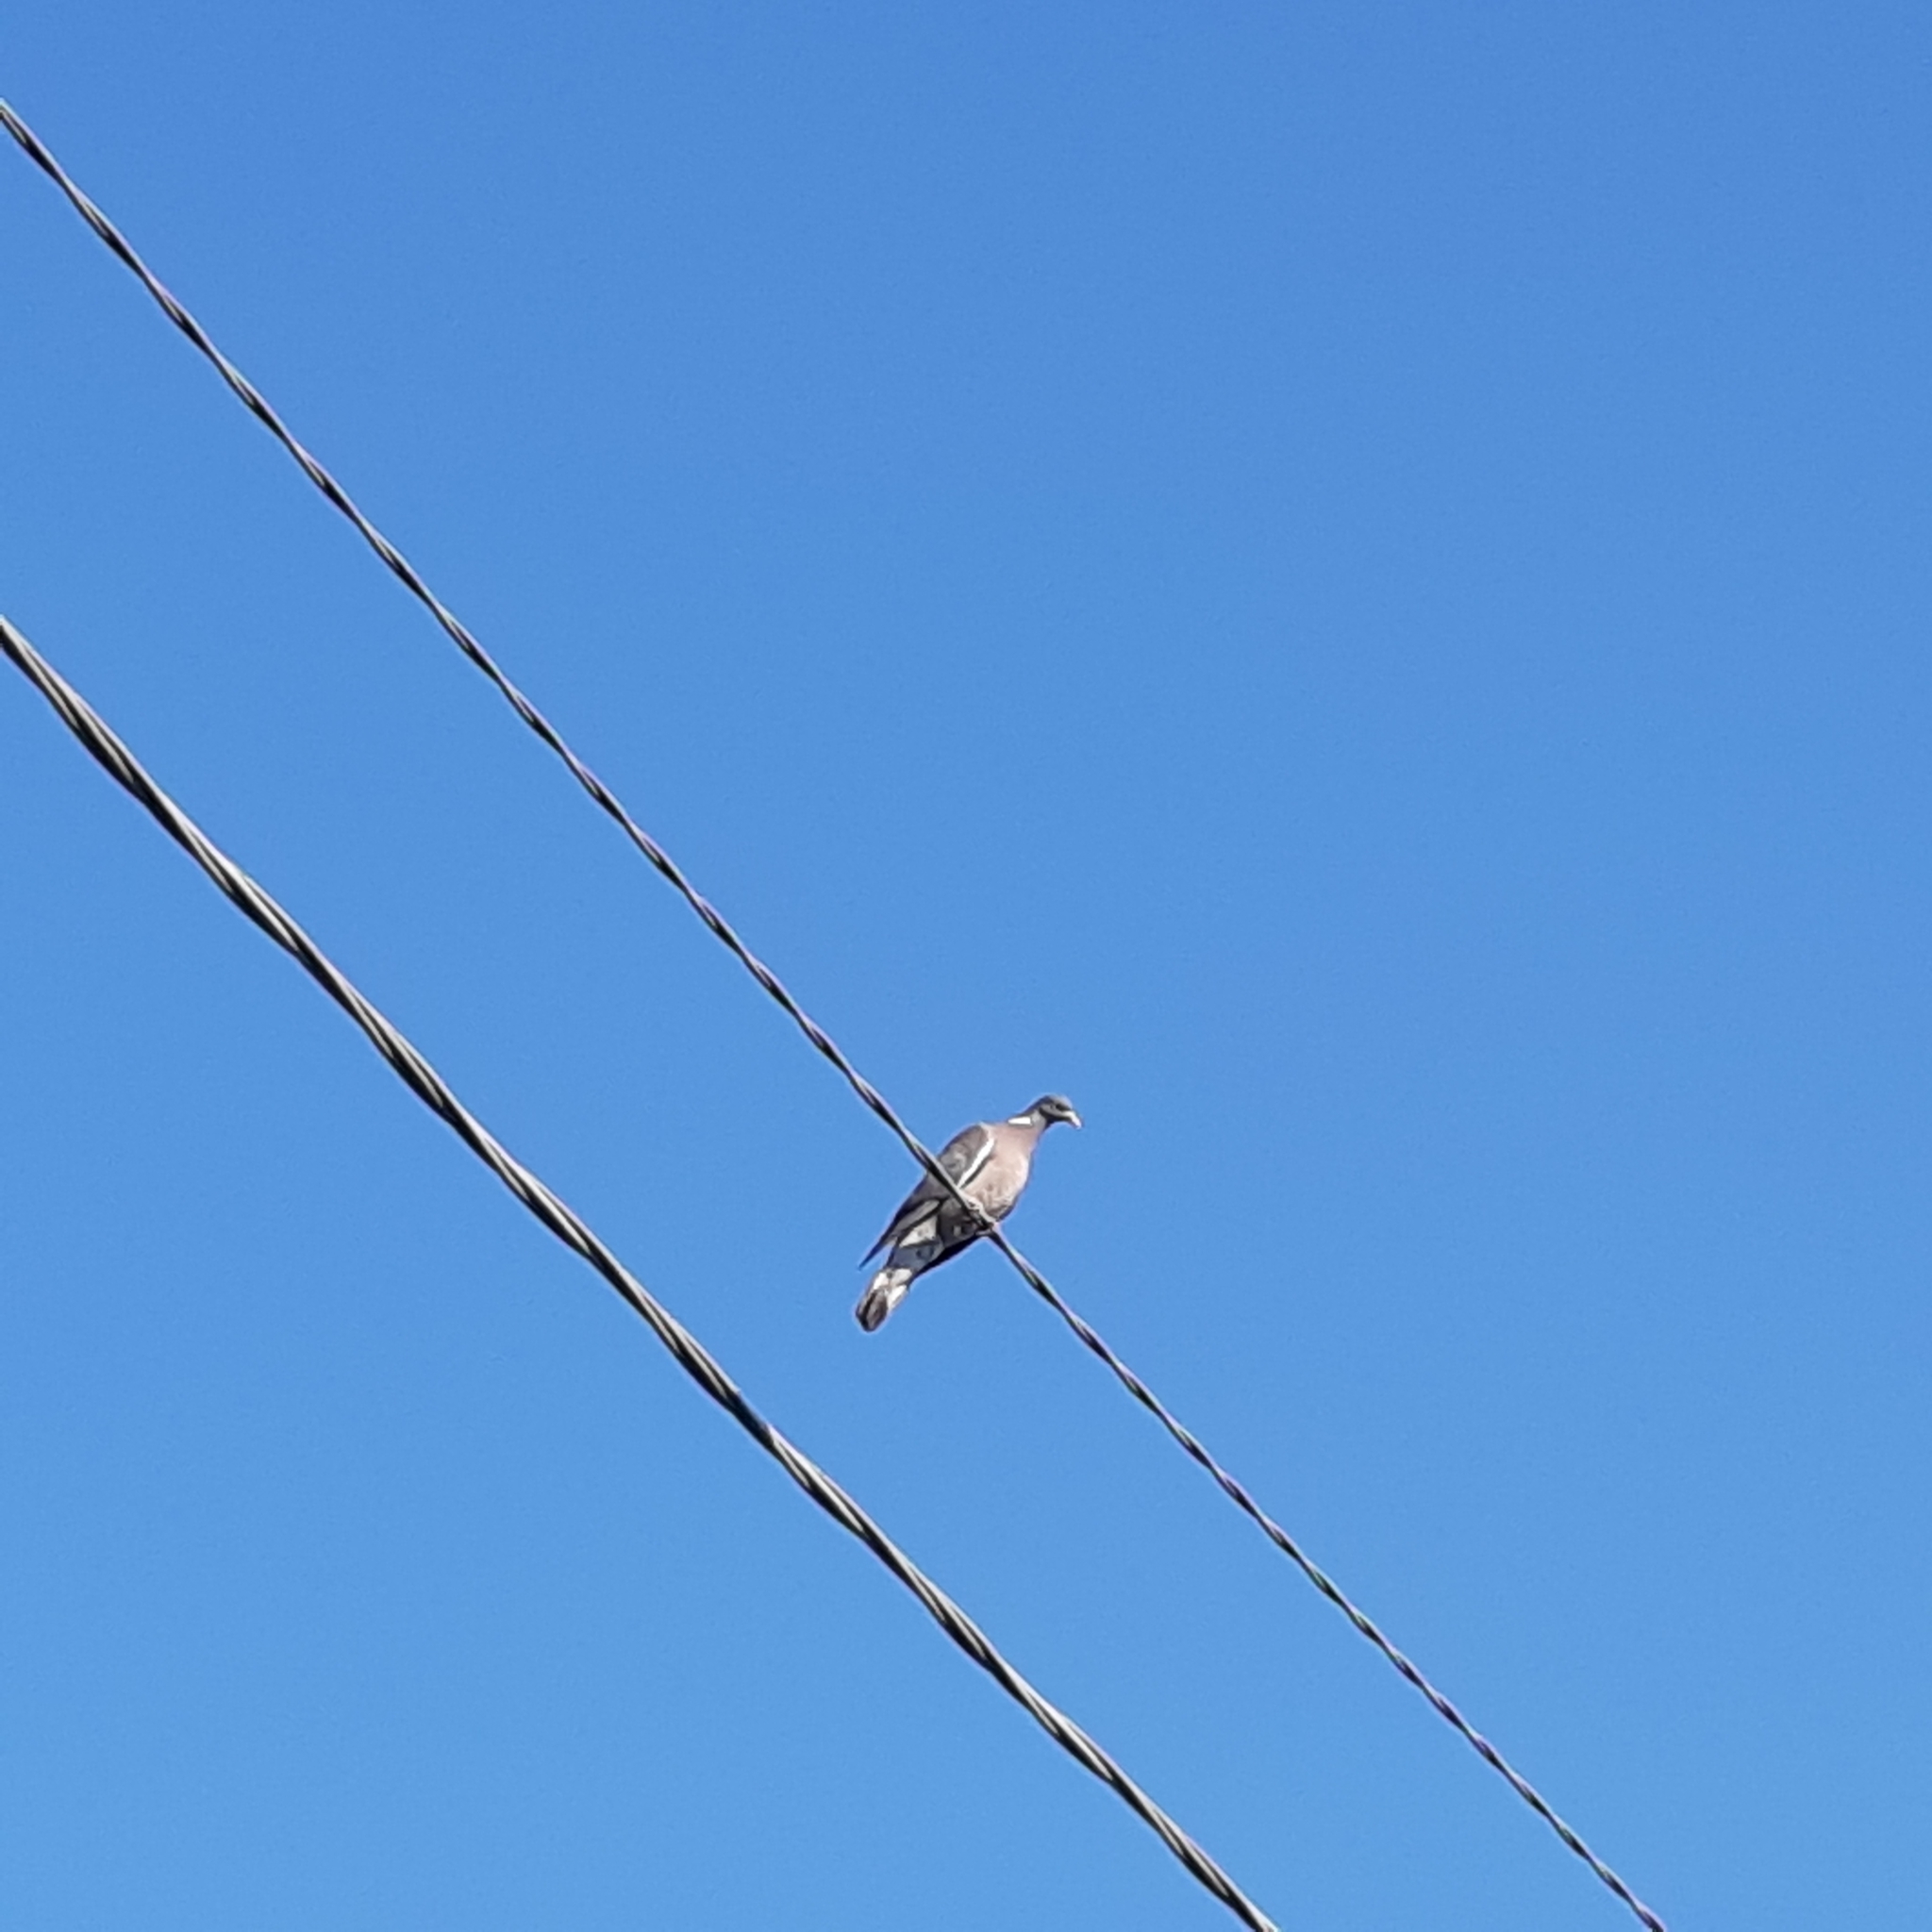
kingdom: Animalia
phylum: Chordata
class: Aves
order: Columbiformes
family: Columbidae
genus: Columba
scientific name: Columba palumbus
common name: Common wood pigeon
